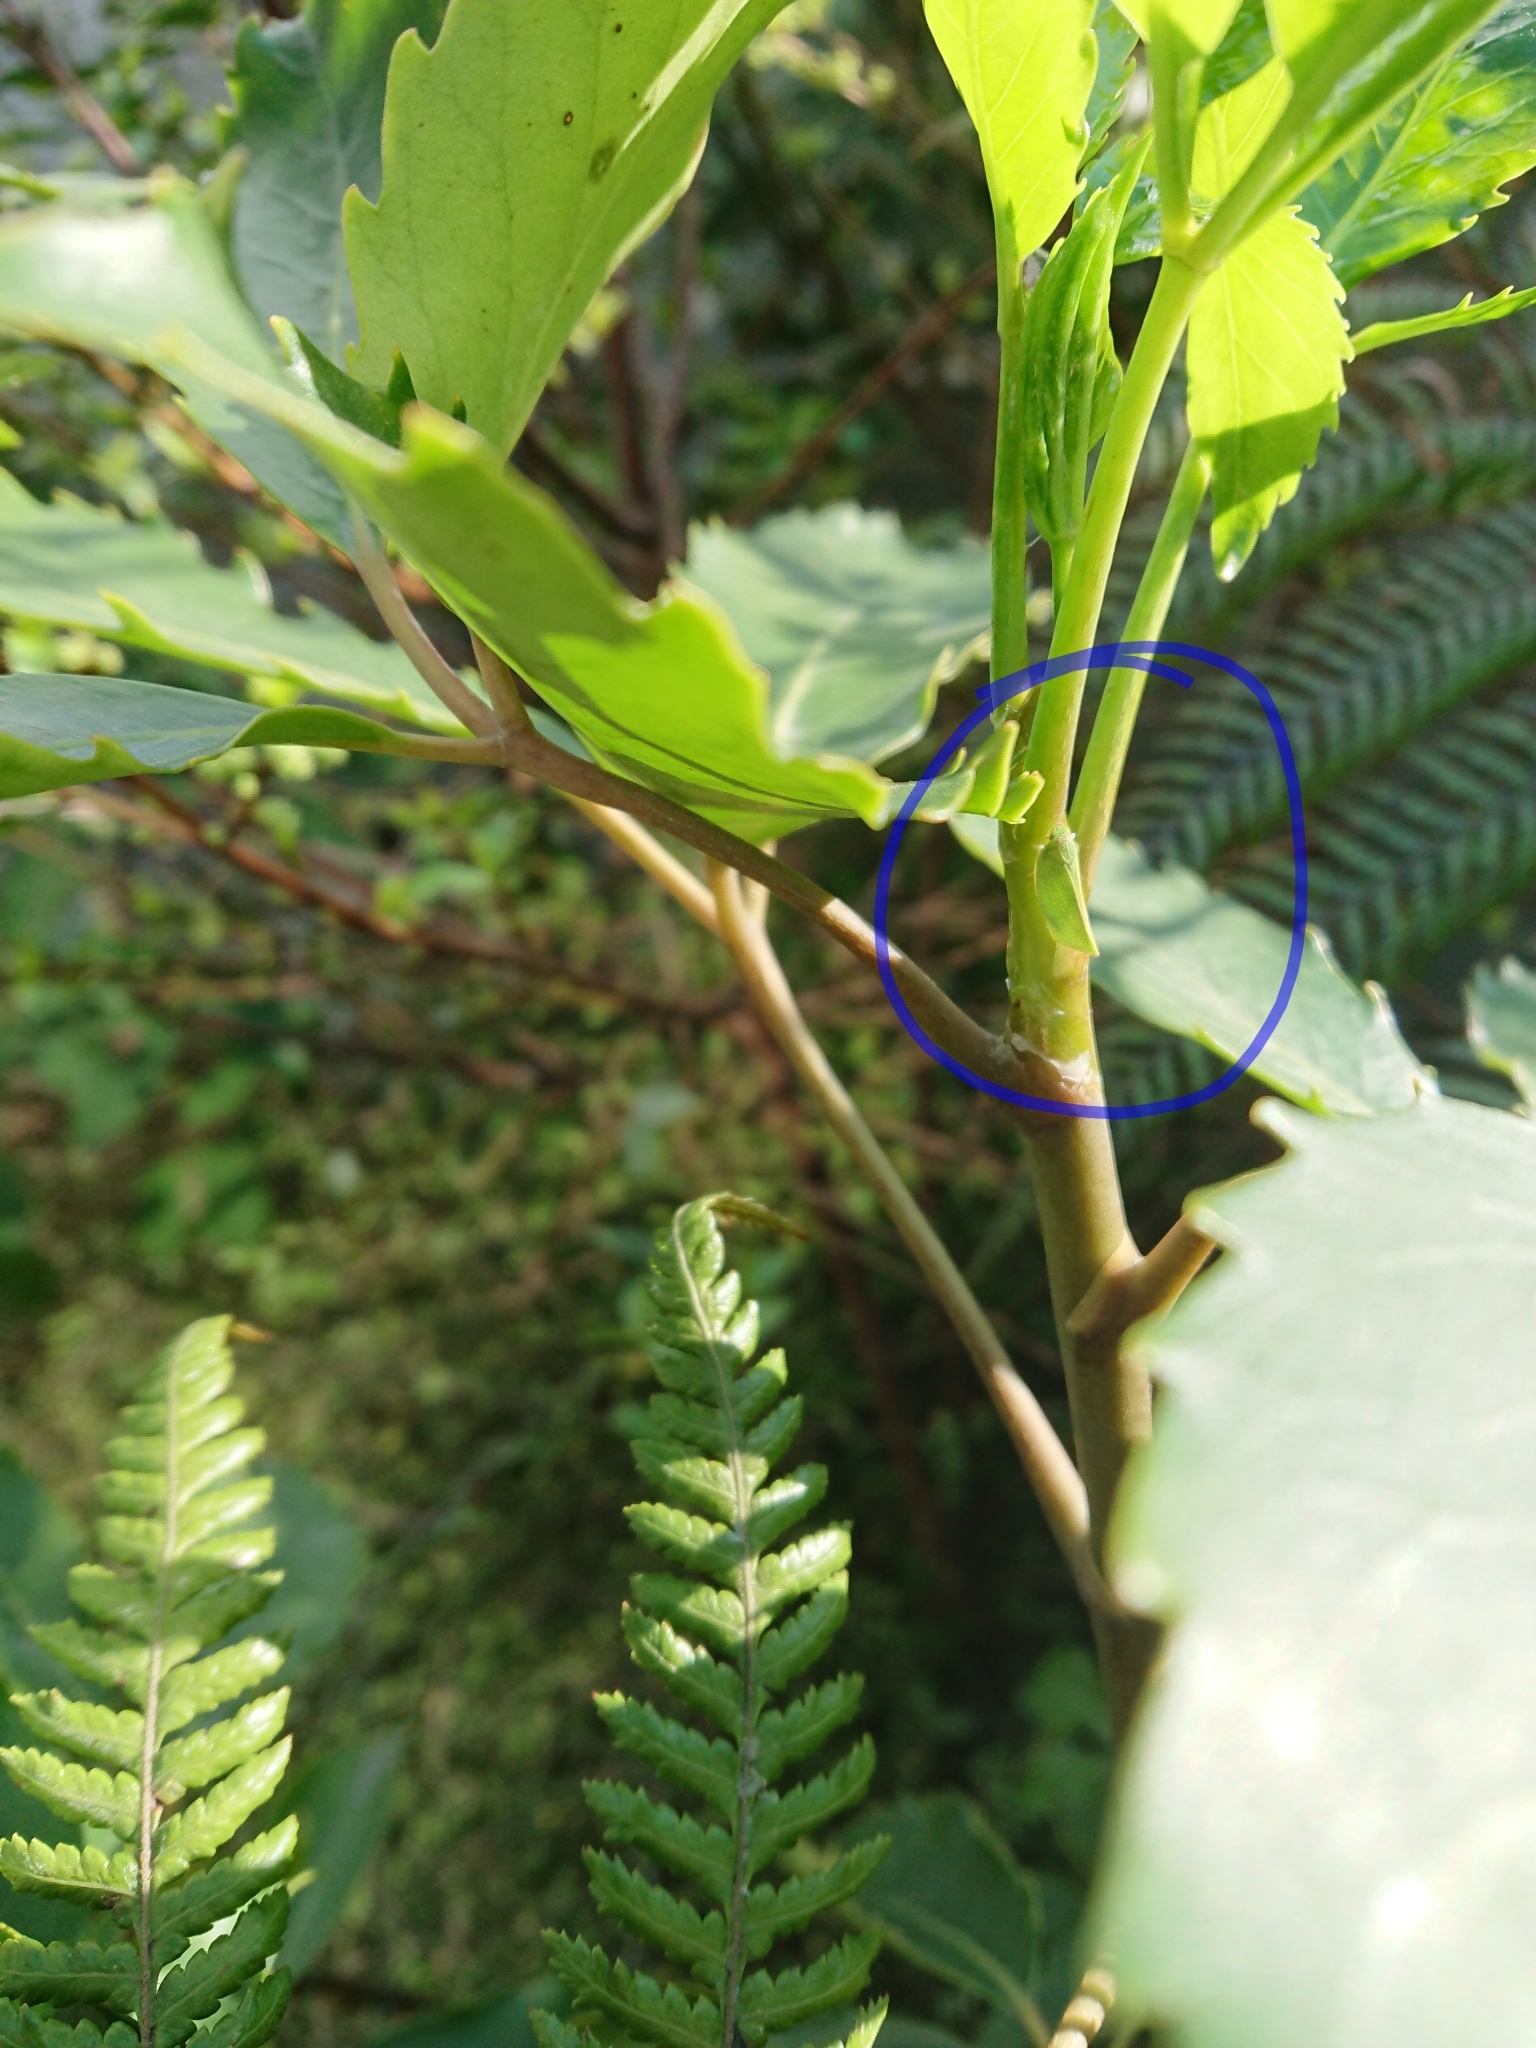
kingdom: Animalia
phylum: Arthropoda
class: Insecta
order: Hemiptera
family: Flatidae
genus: Siphanta
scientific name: Siphanta acuta
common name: Torpedo bug
